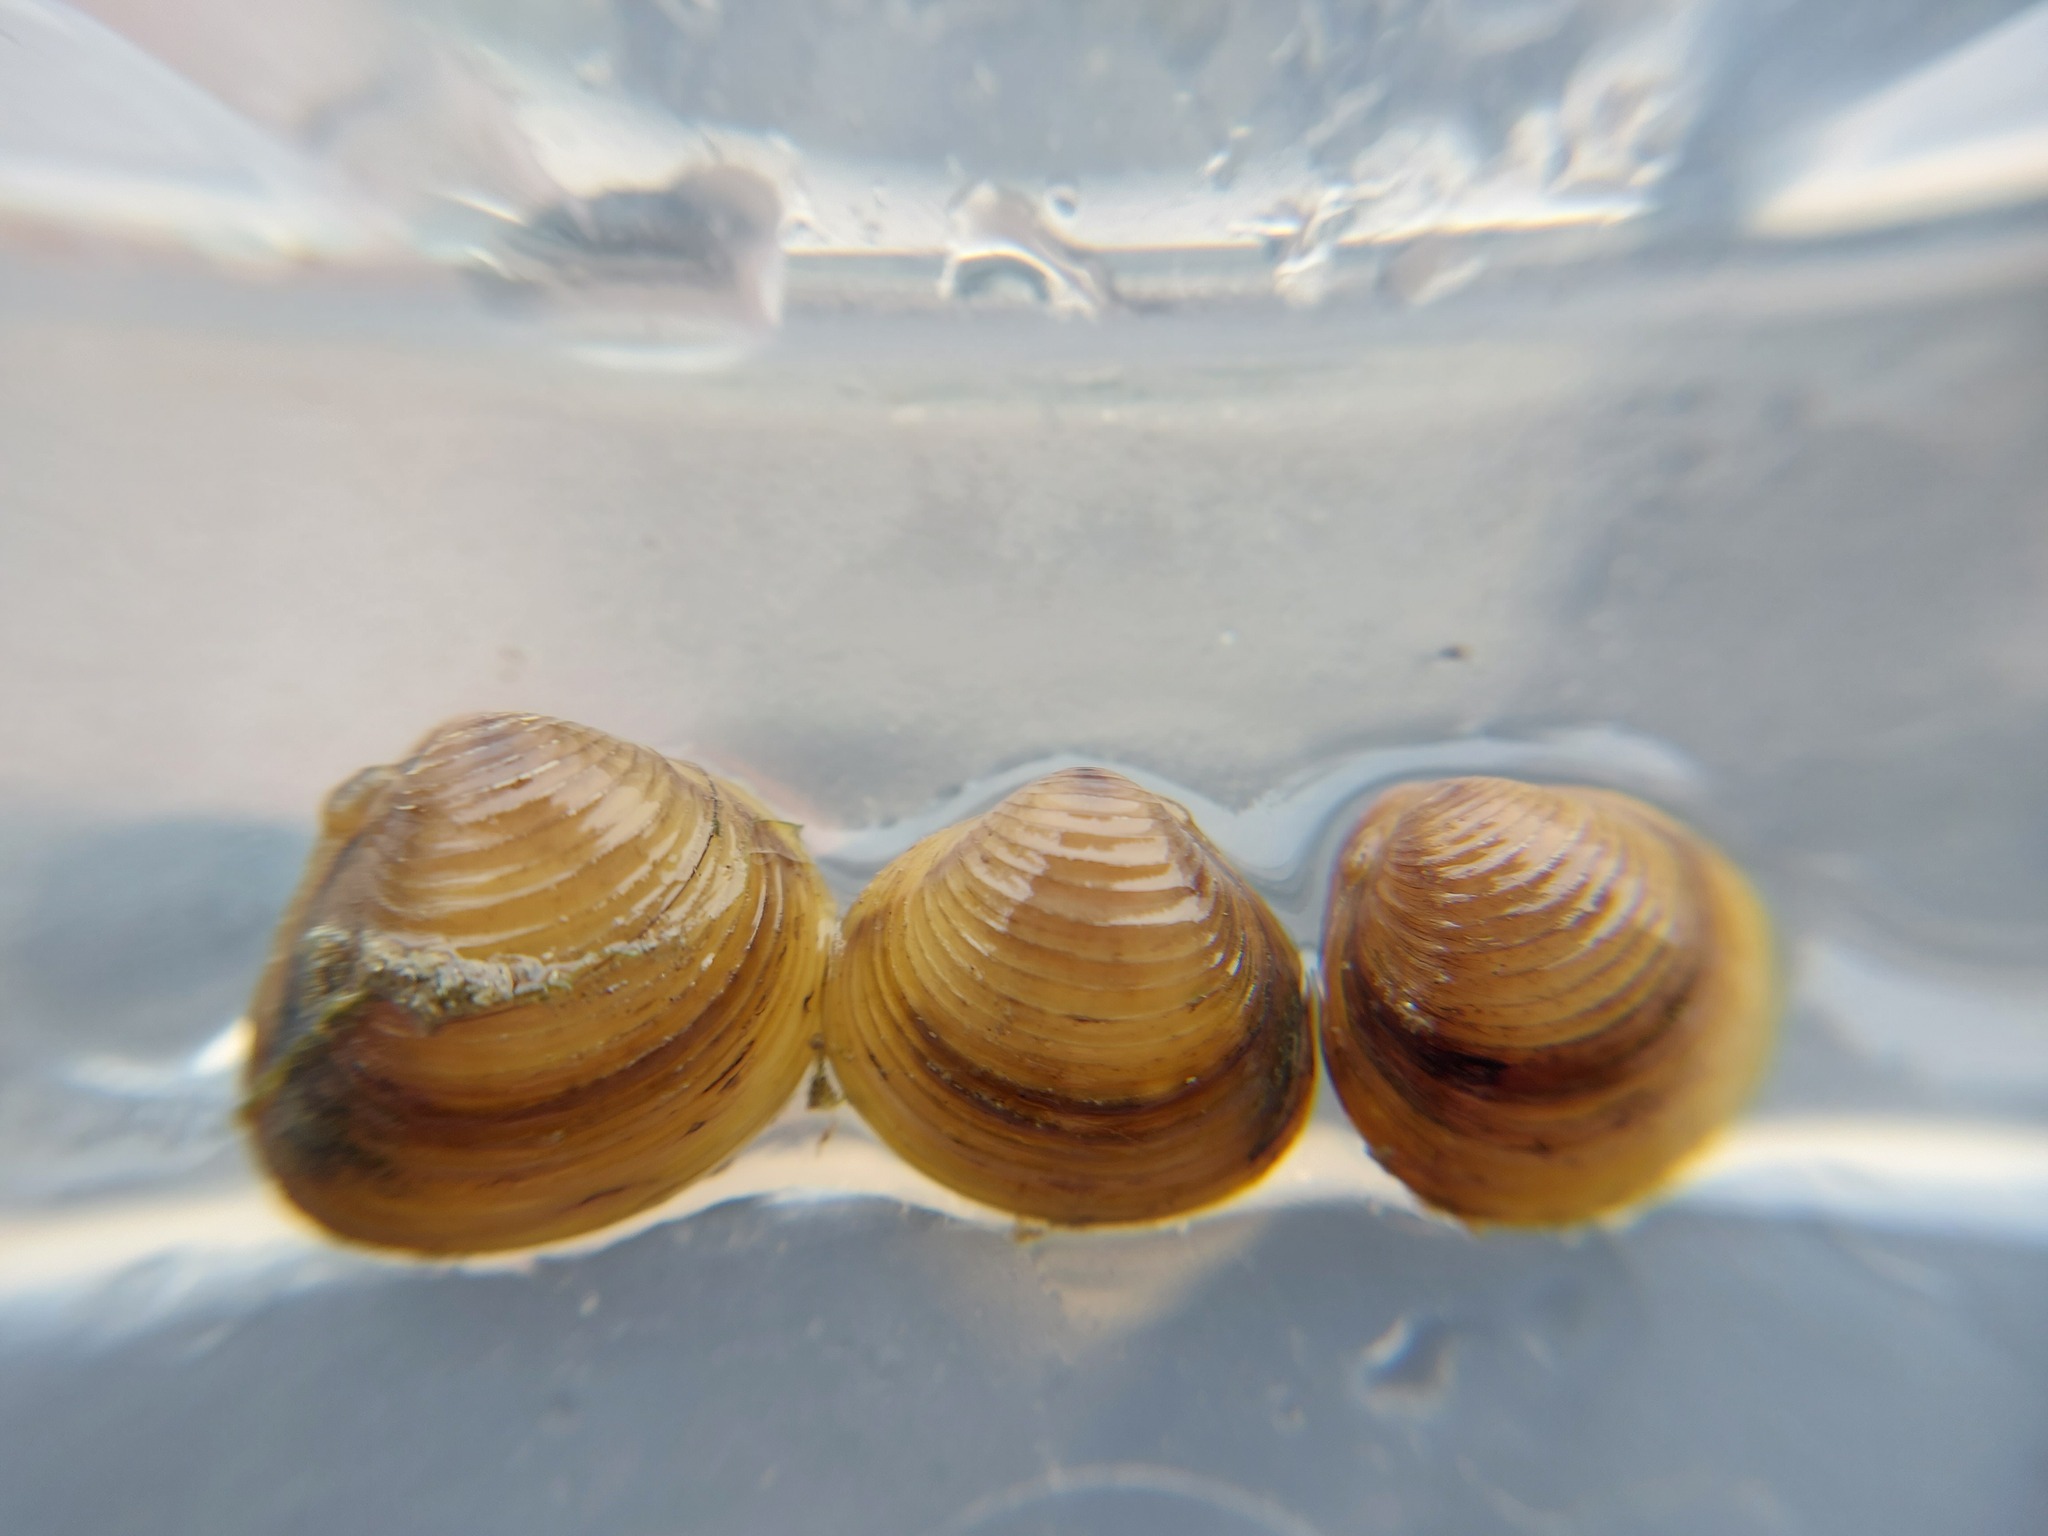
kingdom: Animalia
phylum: Mollusca
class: Bivalvia
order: Venerida
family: Cyrenidae
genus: Corbicula
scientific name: Corbicula fluminea
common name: Asian clam
